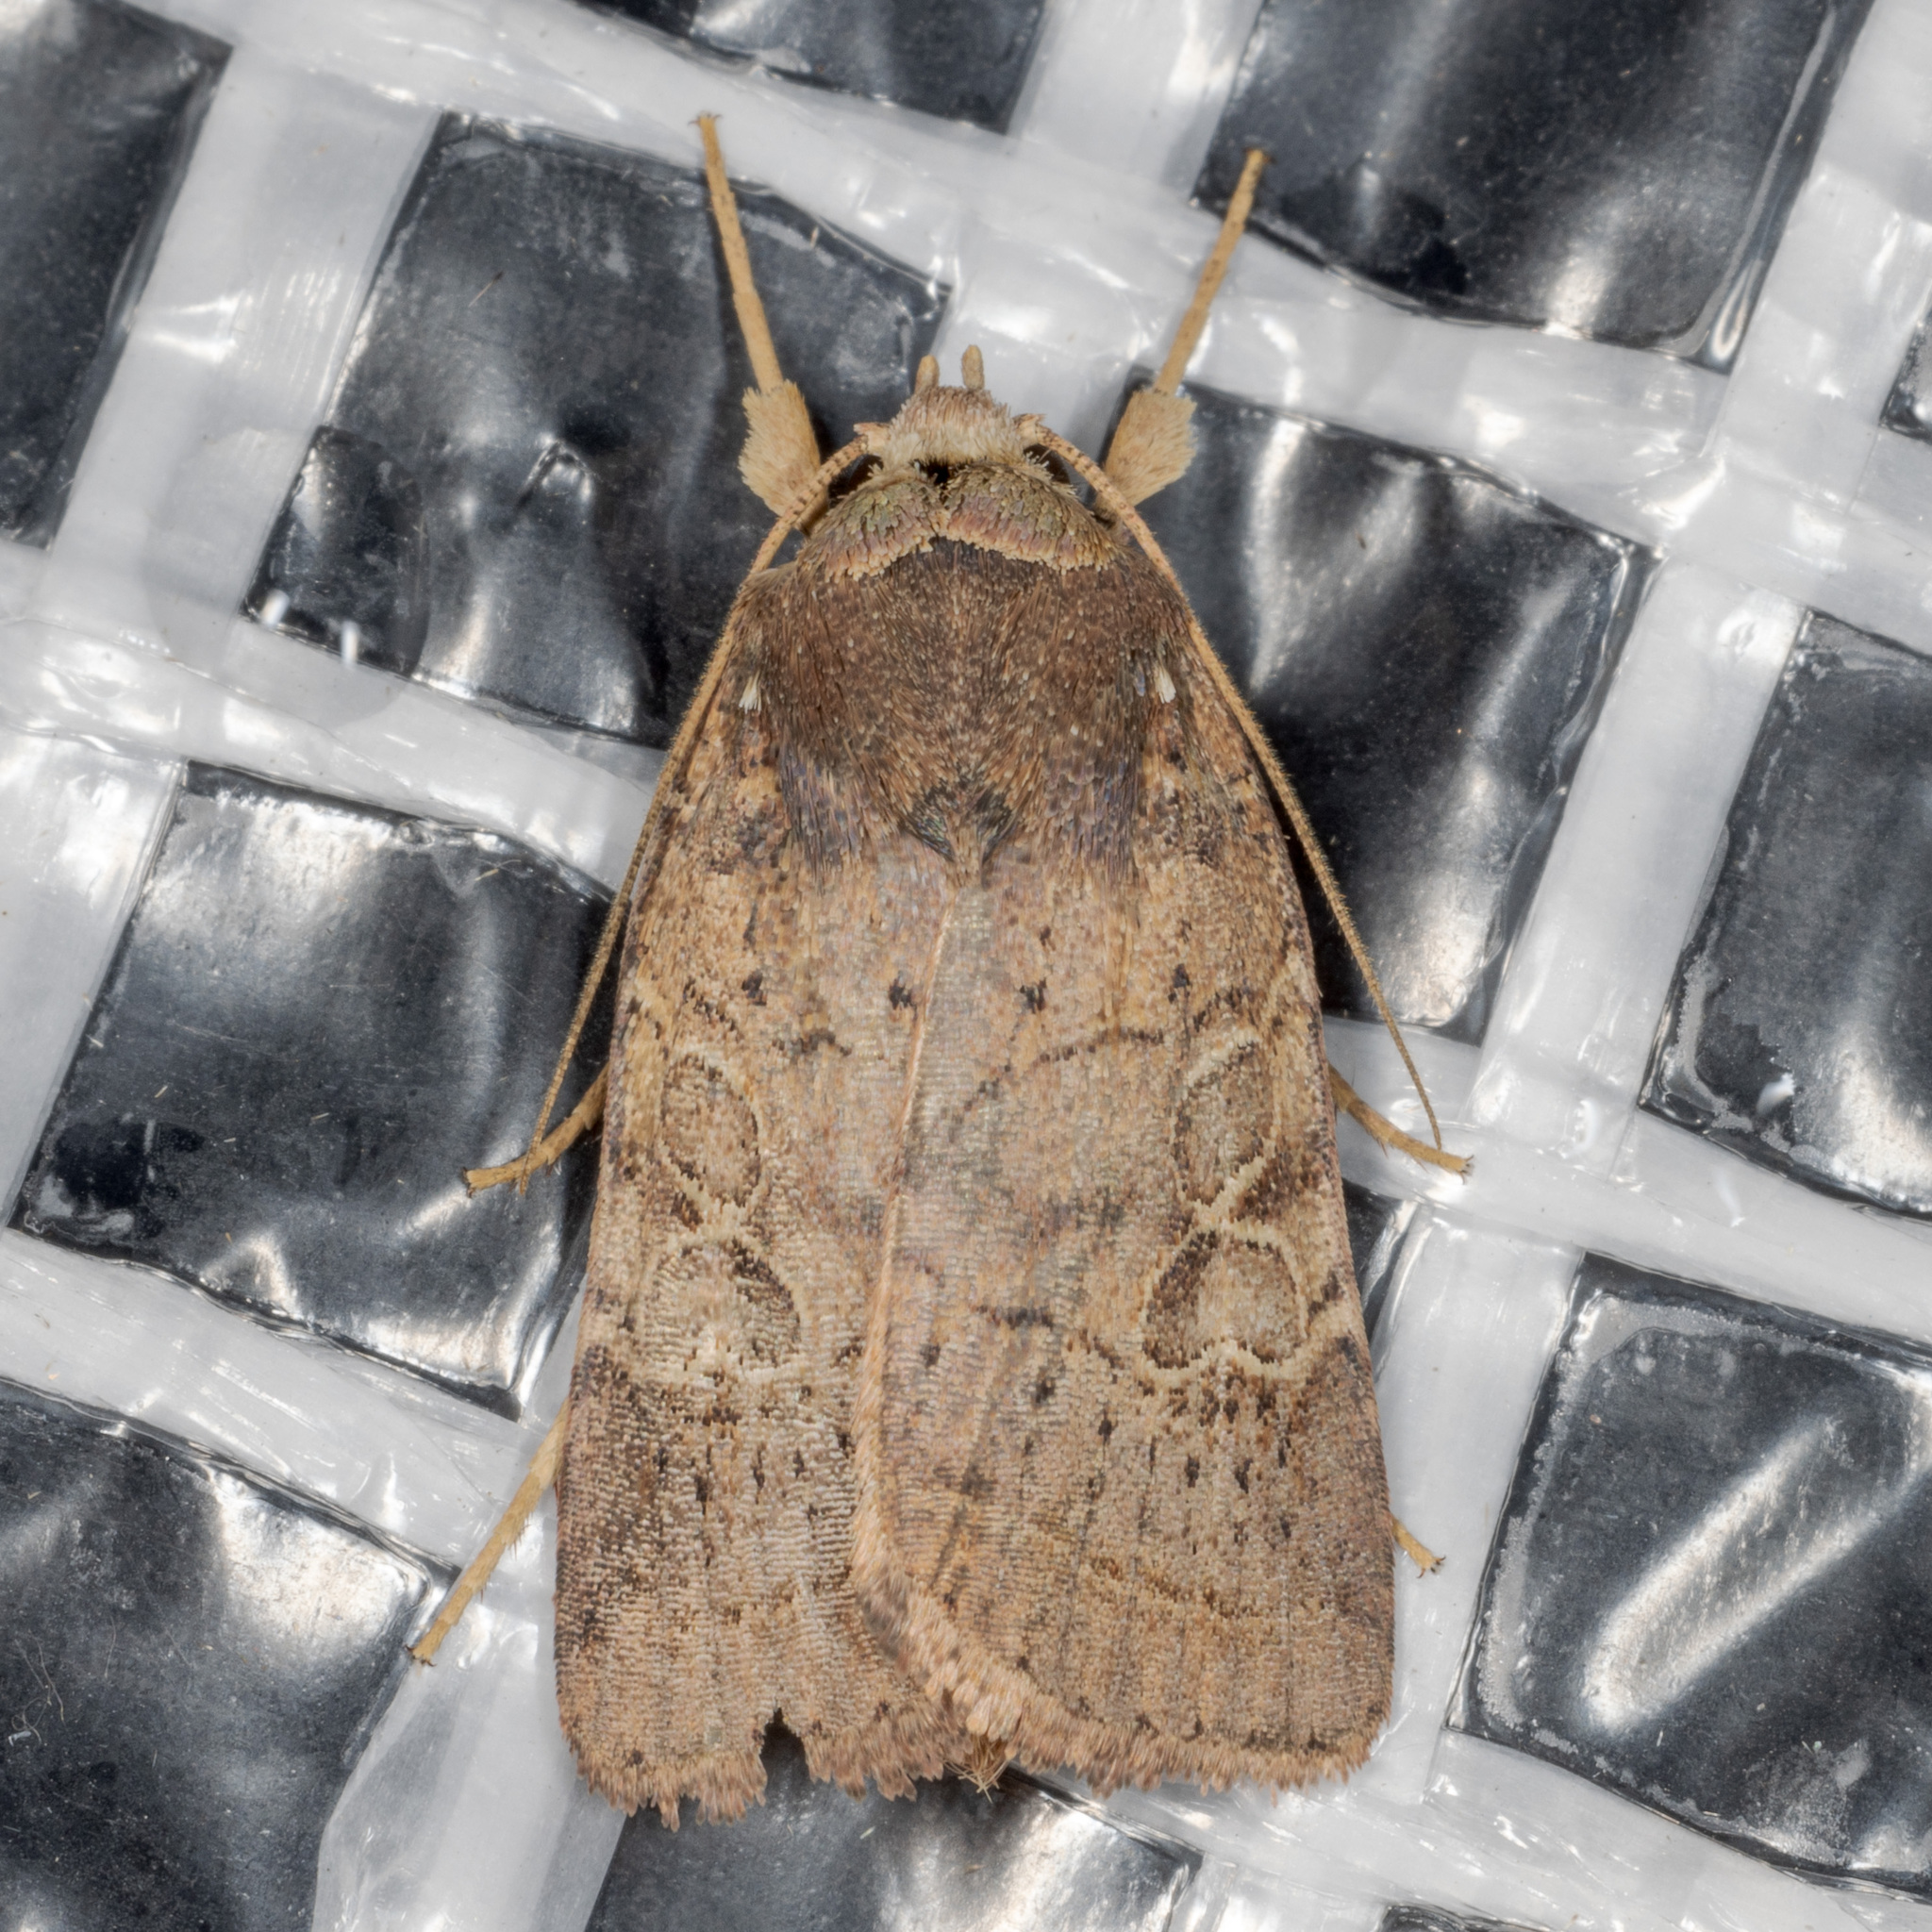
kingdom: Animalia
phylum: Arthropoda
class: Insecta
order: Lepidoptera
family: Noctuidae
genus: Orthodes
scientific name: Orthodes furtiva
